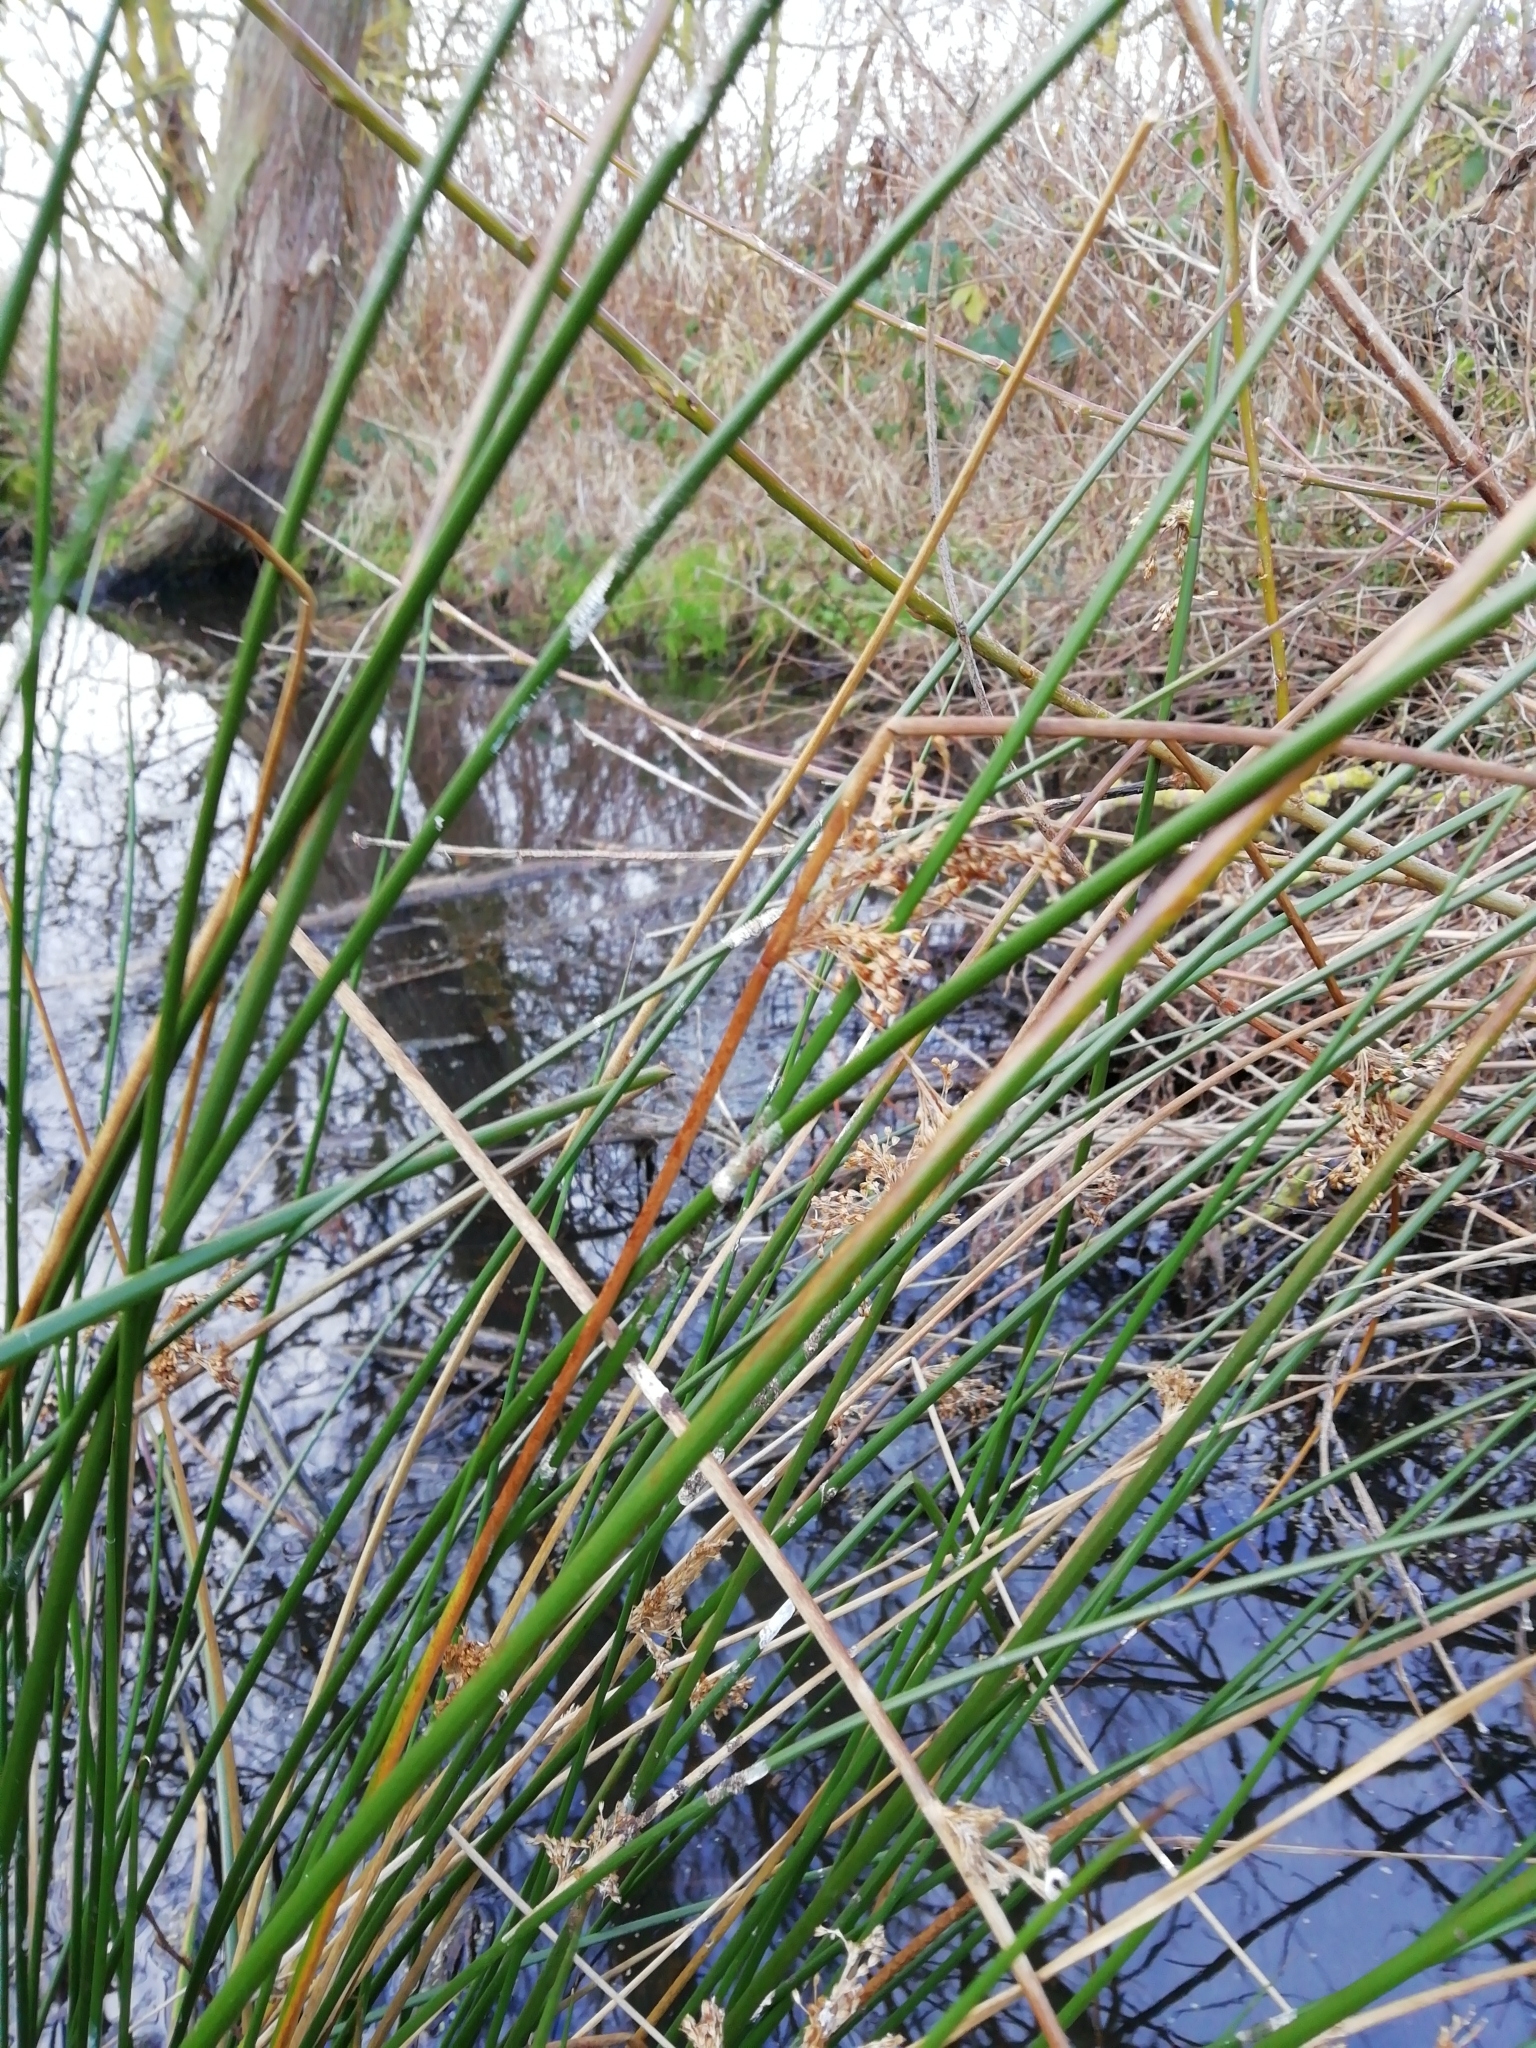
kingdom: Plantae
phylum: Tracheophyta
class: Liliopsida
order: Poales
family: Juncaceae
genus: Juncus
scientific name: Juncus effusus
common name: Soft rush
